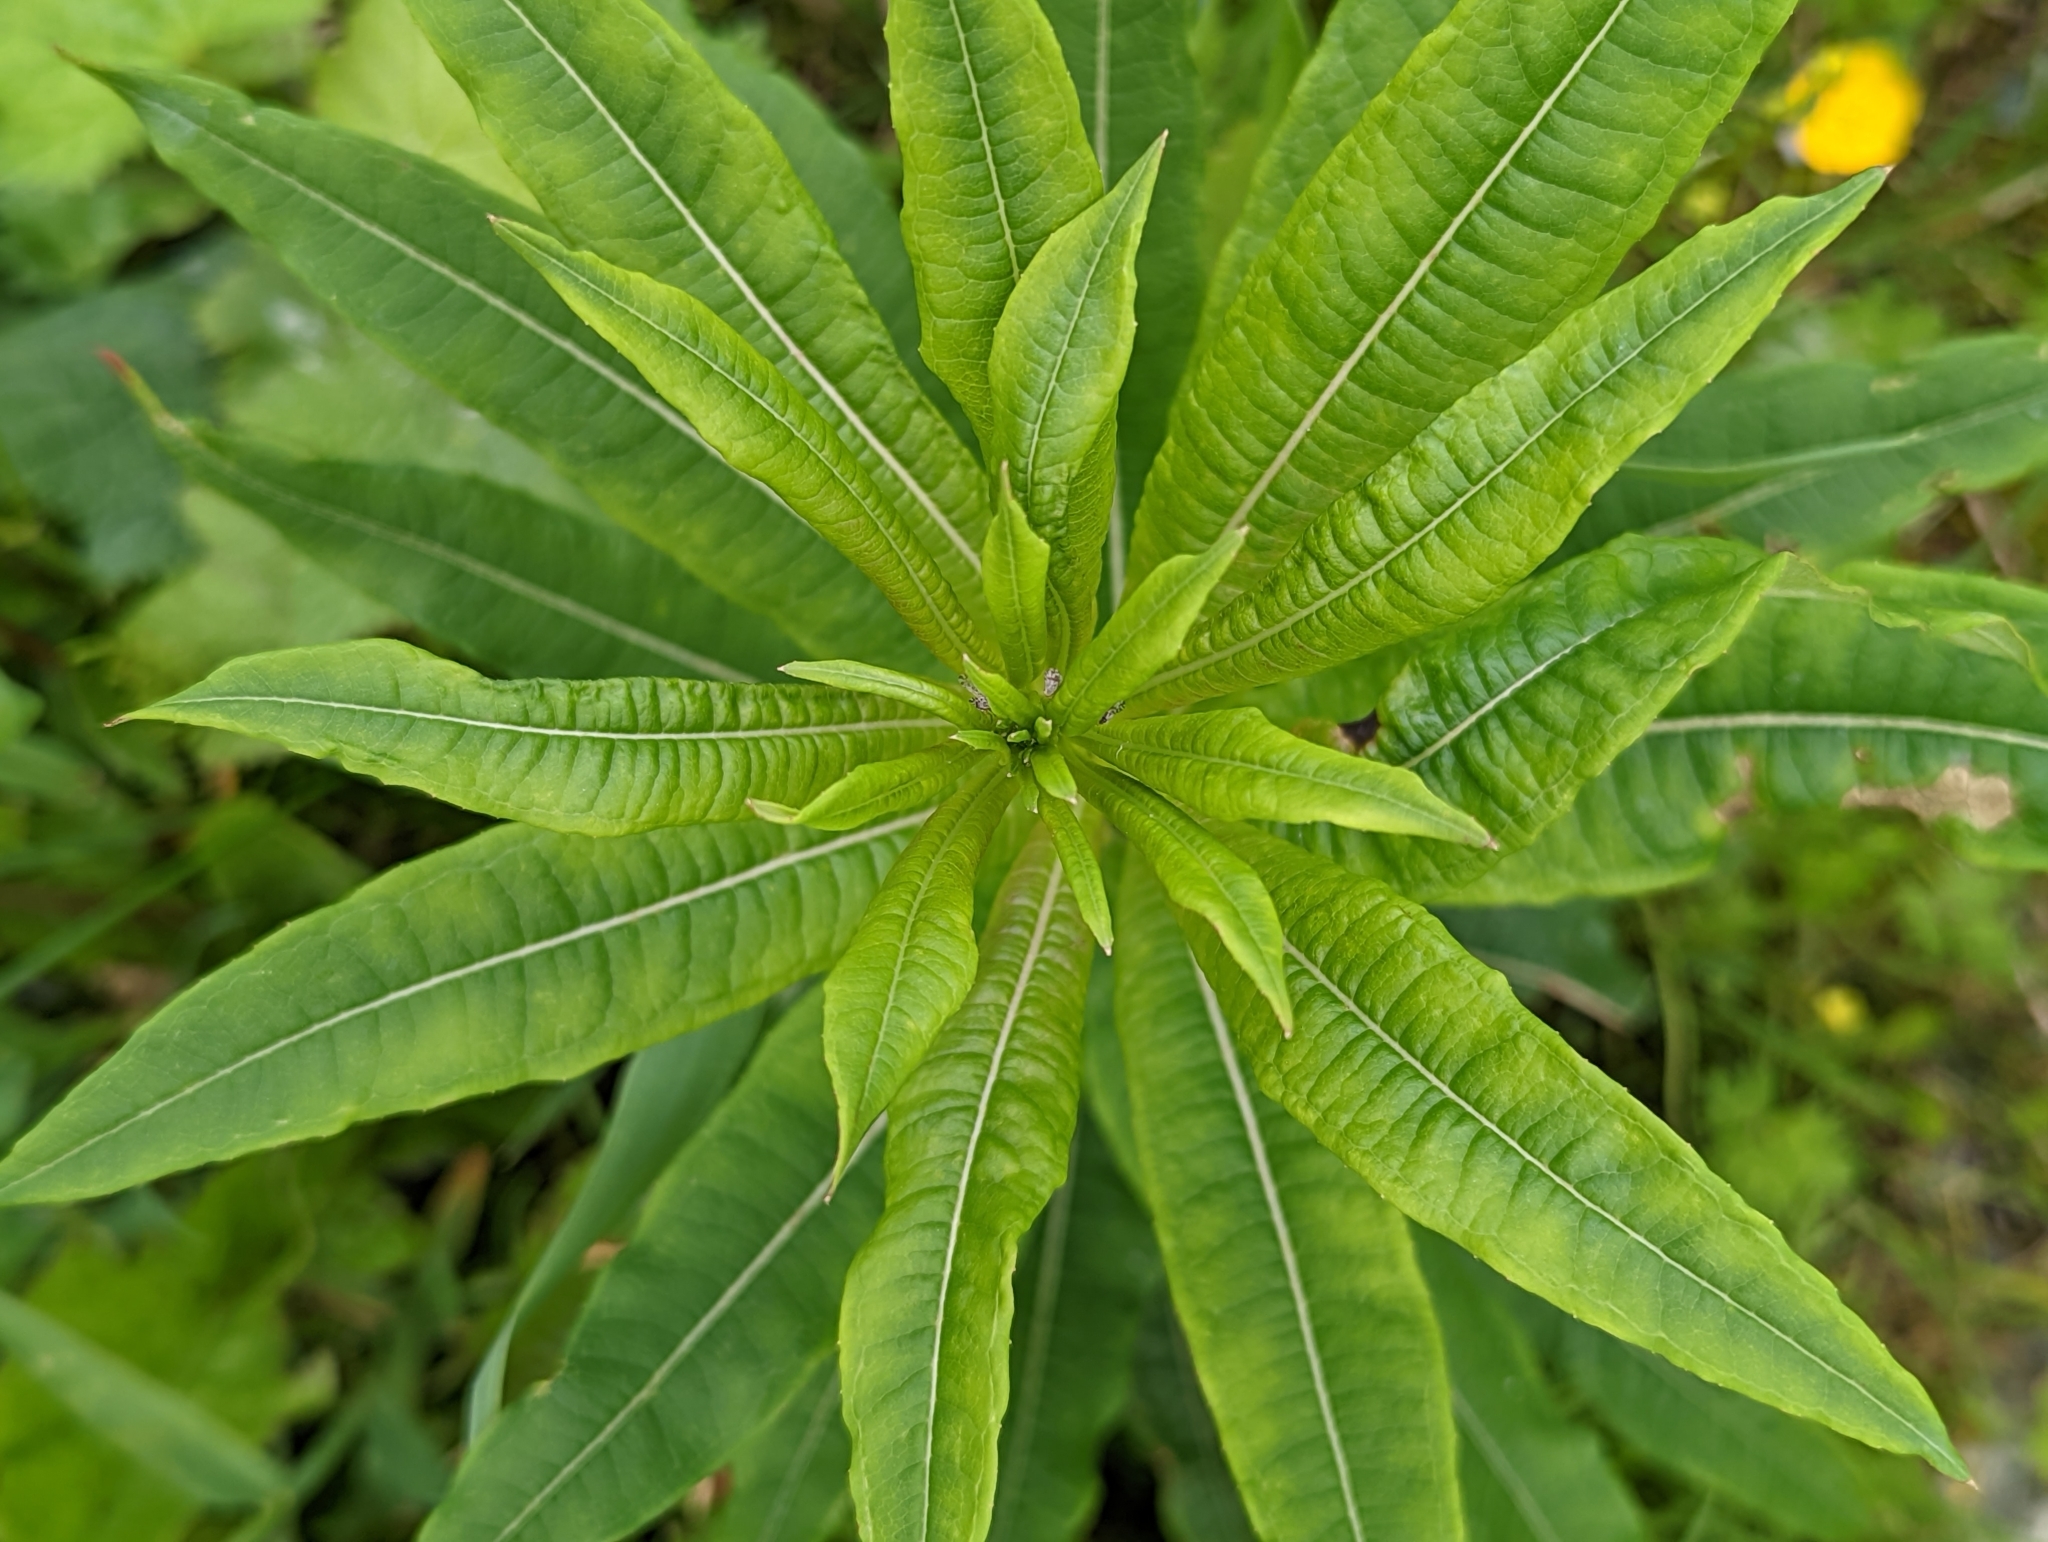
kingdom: Plantae
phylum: Tracheophyta
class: Magnoliopsida
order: Myrtales
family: Onagraceae
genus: Chamaenerion
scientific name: Chamaenerion angustifolium
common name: Fireweed
